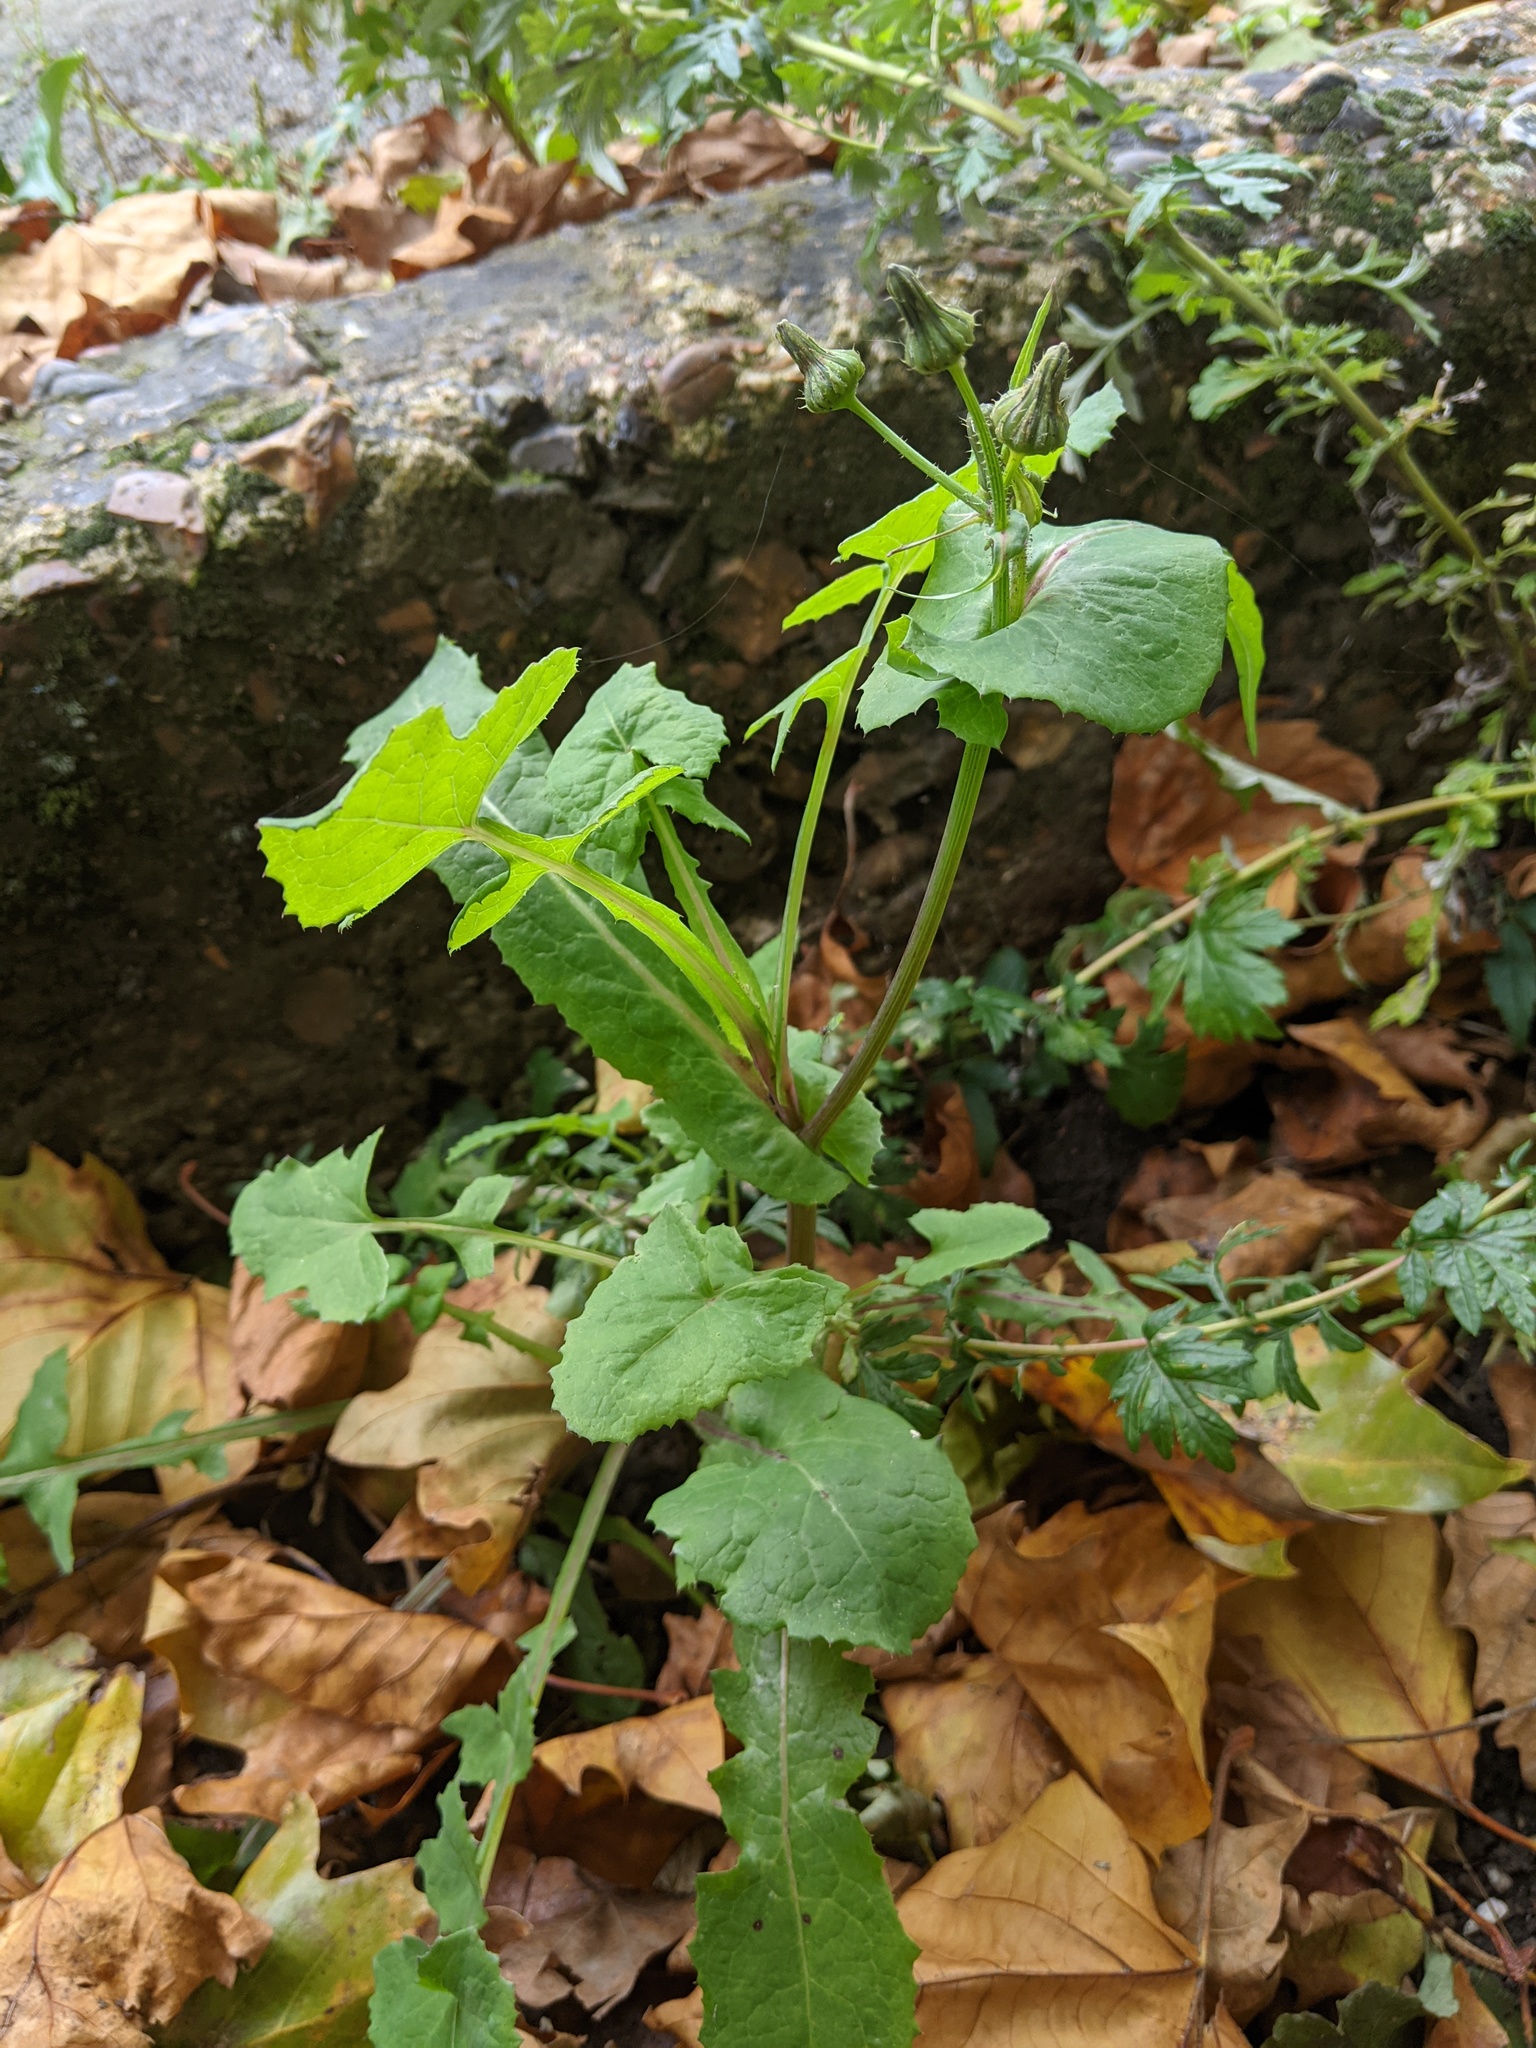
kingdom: Plantae
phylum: Tracheophyta
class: Magnoliopsida
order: Asterales
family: Asteraceae
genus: Sonchus
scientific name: Sonchus oleraceus
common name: Common sowthistle
